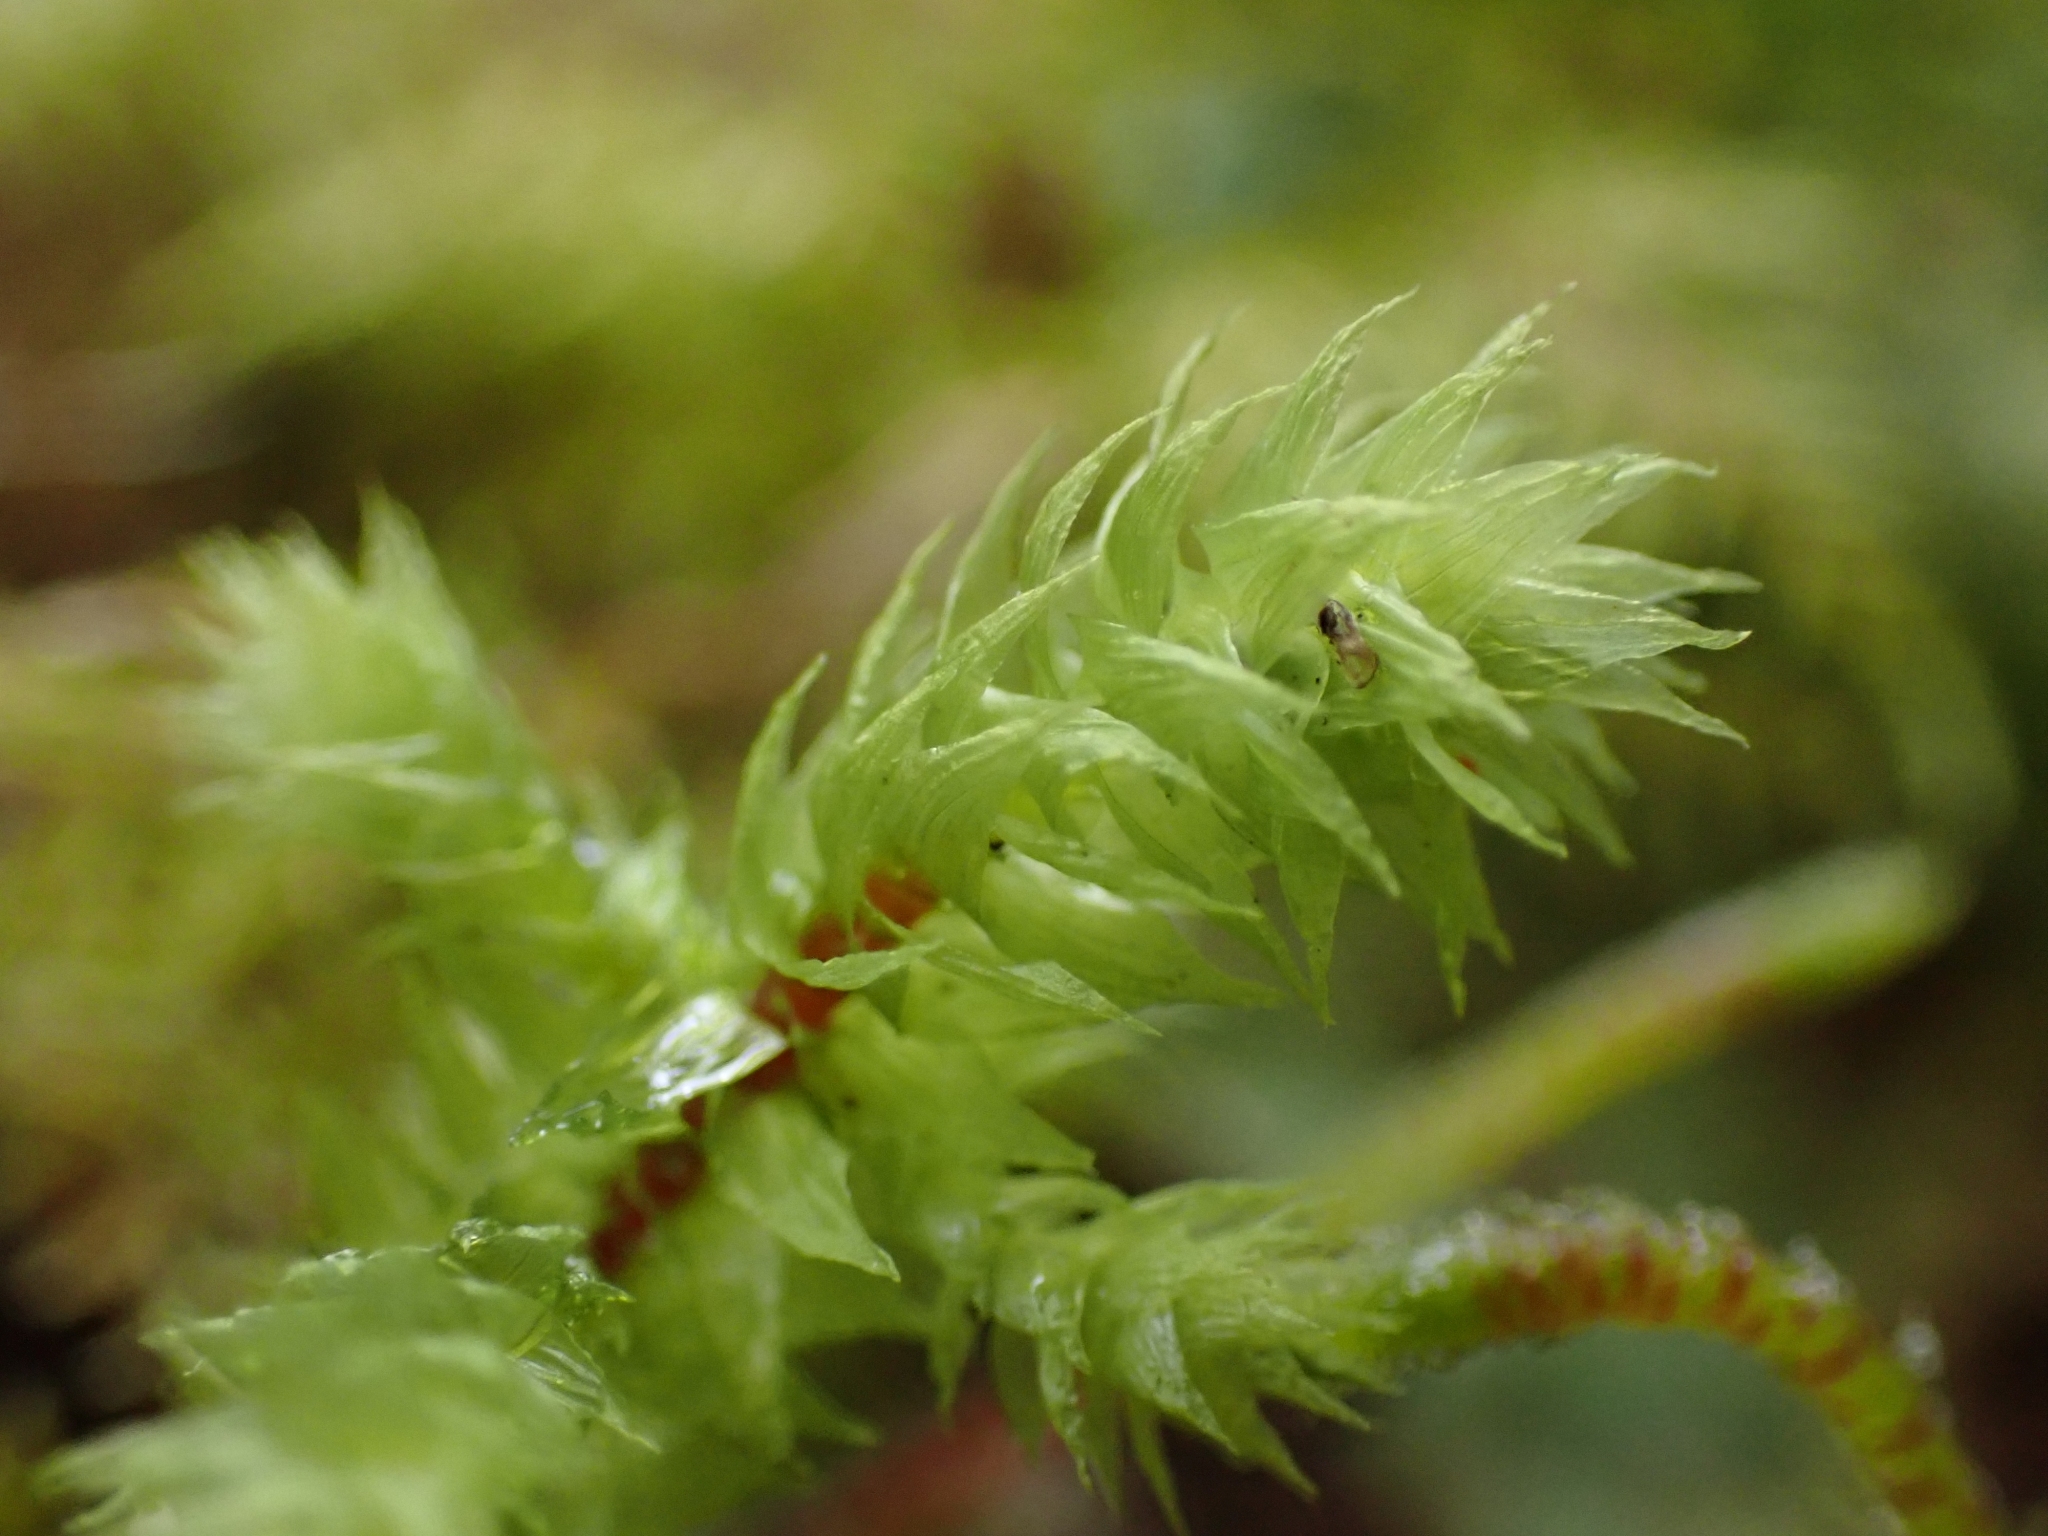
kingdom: Plantae
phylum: Bryophyta
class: Bryopsida
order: Hypnales
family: Hylocomiaceae
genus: Hylocomiadelphus
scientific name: Hylocomiadelphus triquetrus
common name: Rough goose neck moss
